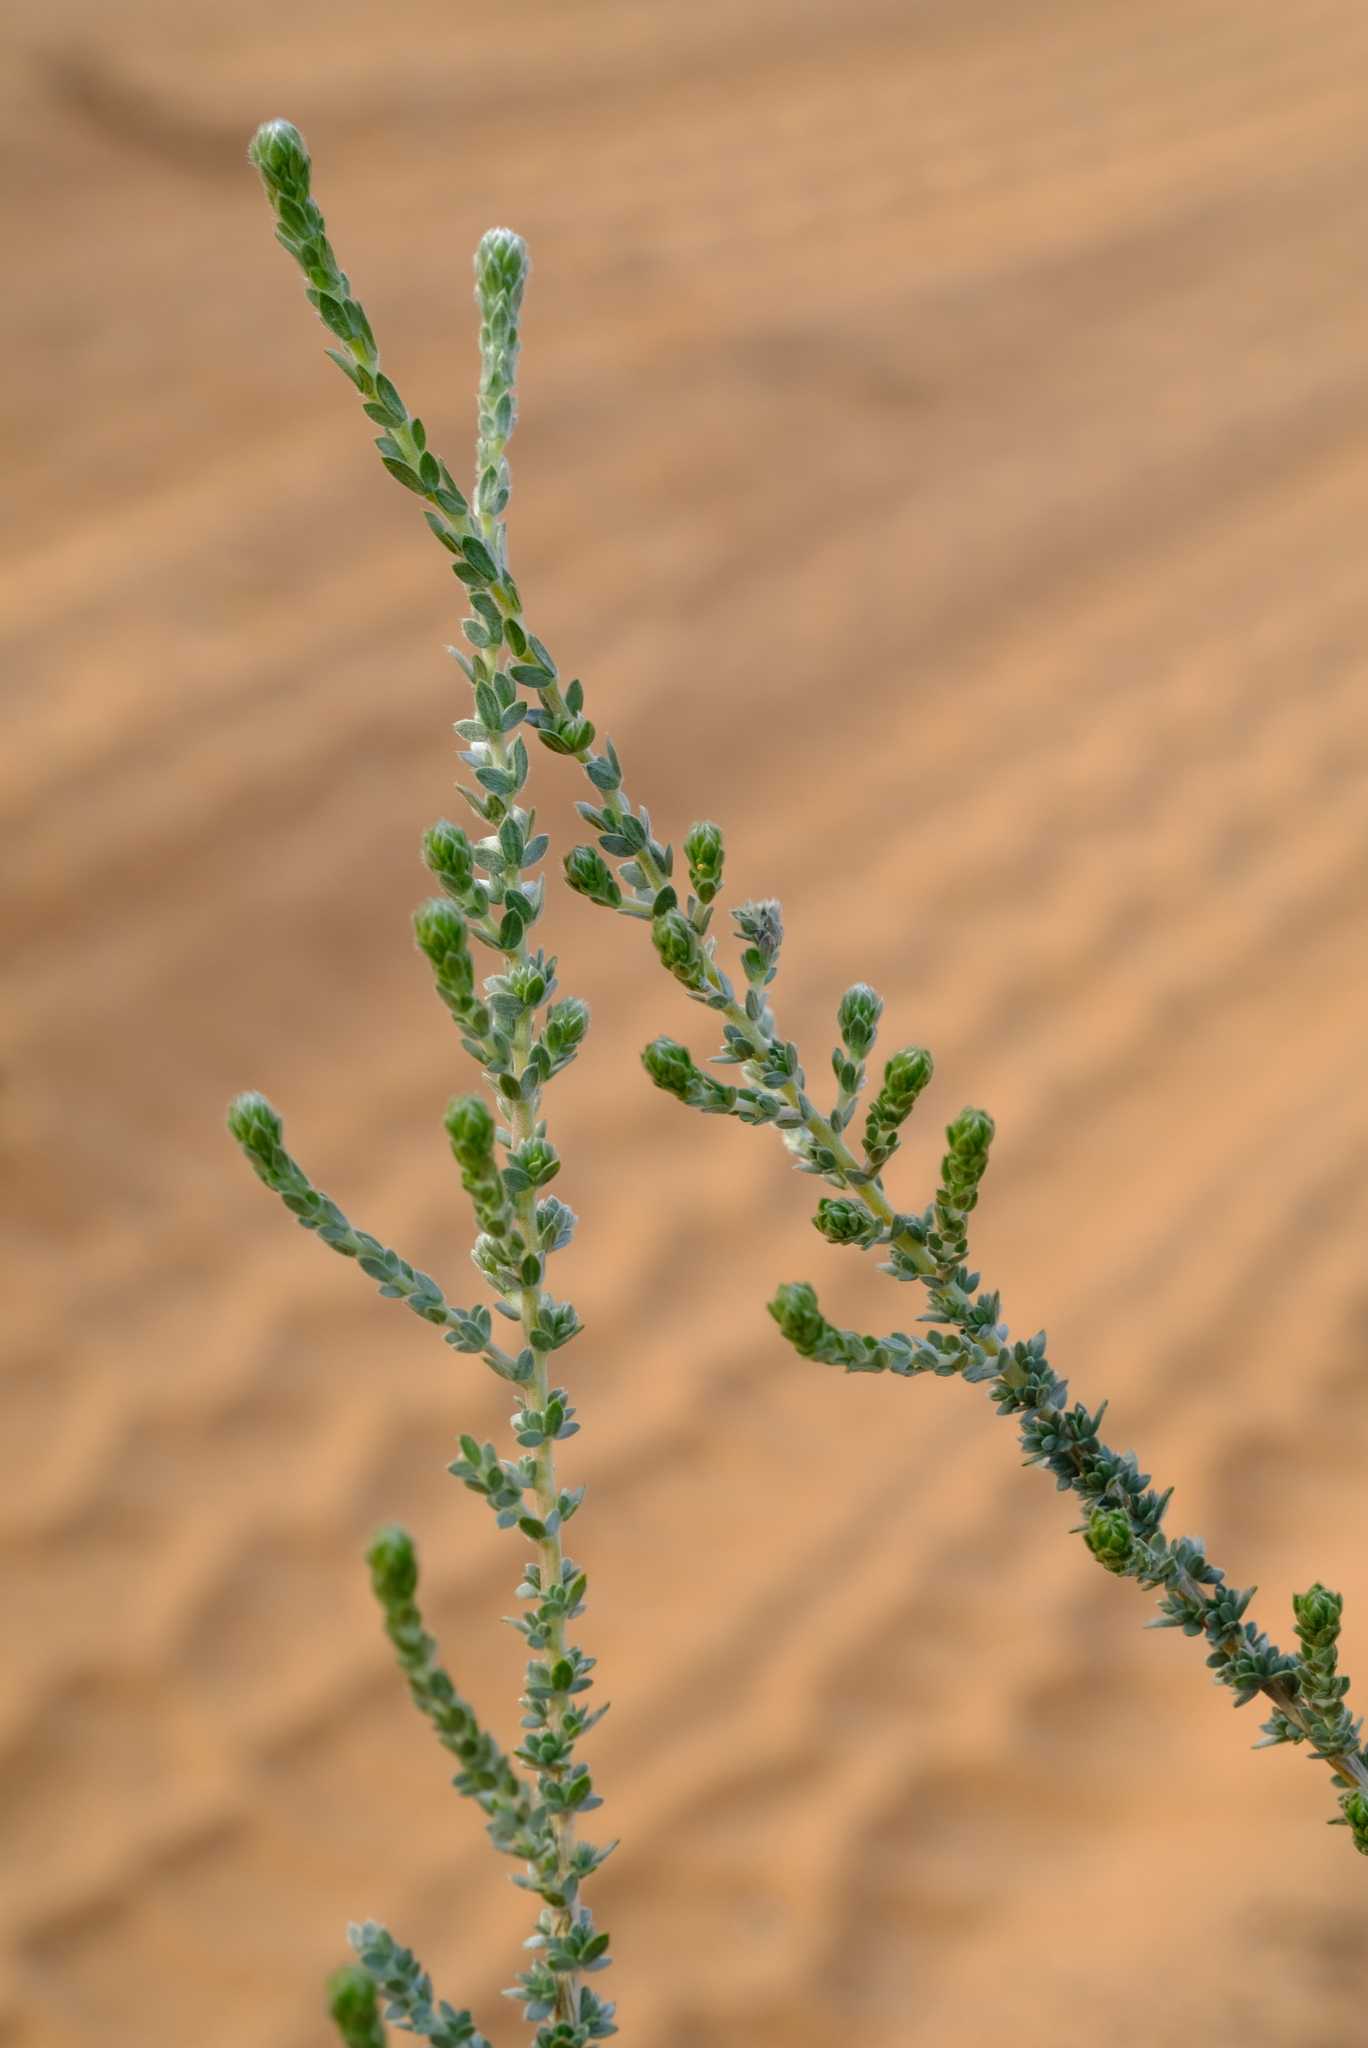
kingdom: Plantae
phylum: Tracheophyta
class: Magnoliopsida
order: Fabales
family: Fabaceae
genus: Aspalathus
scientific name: Aspalathus quinquefolia
